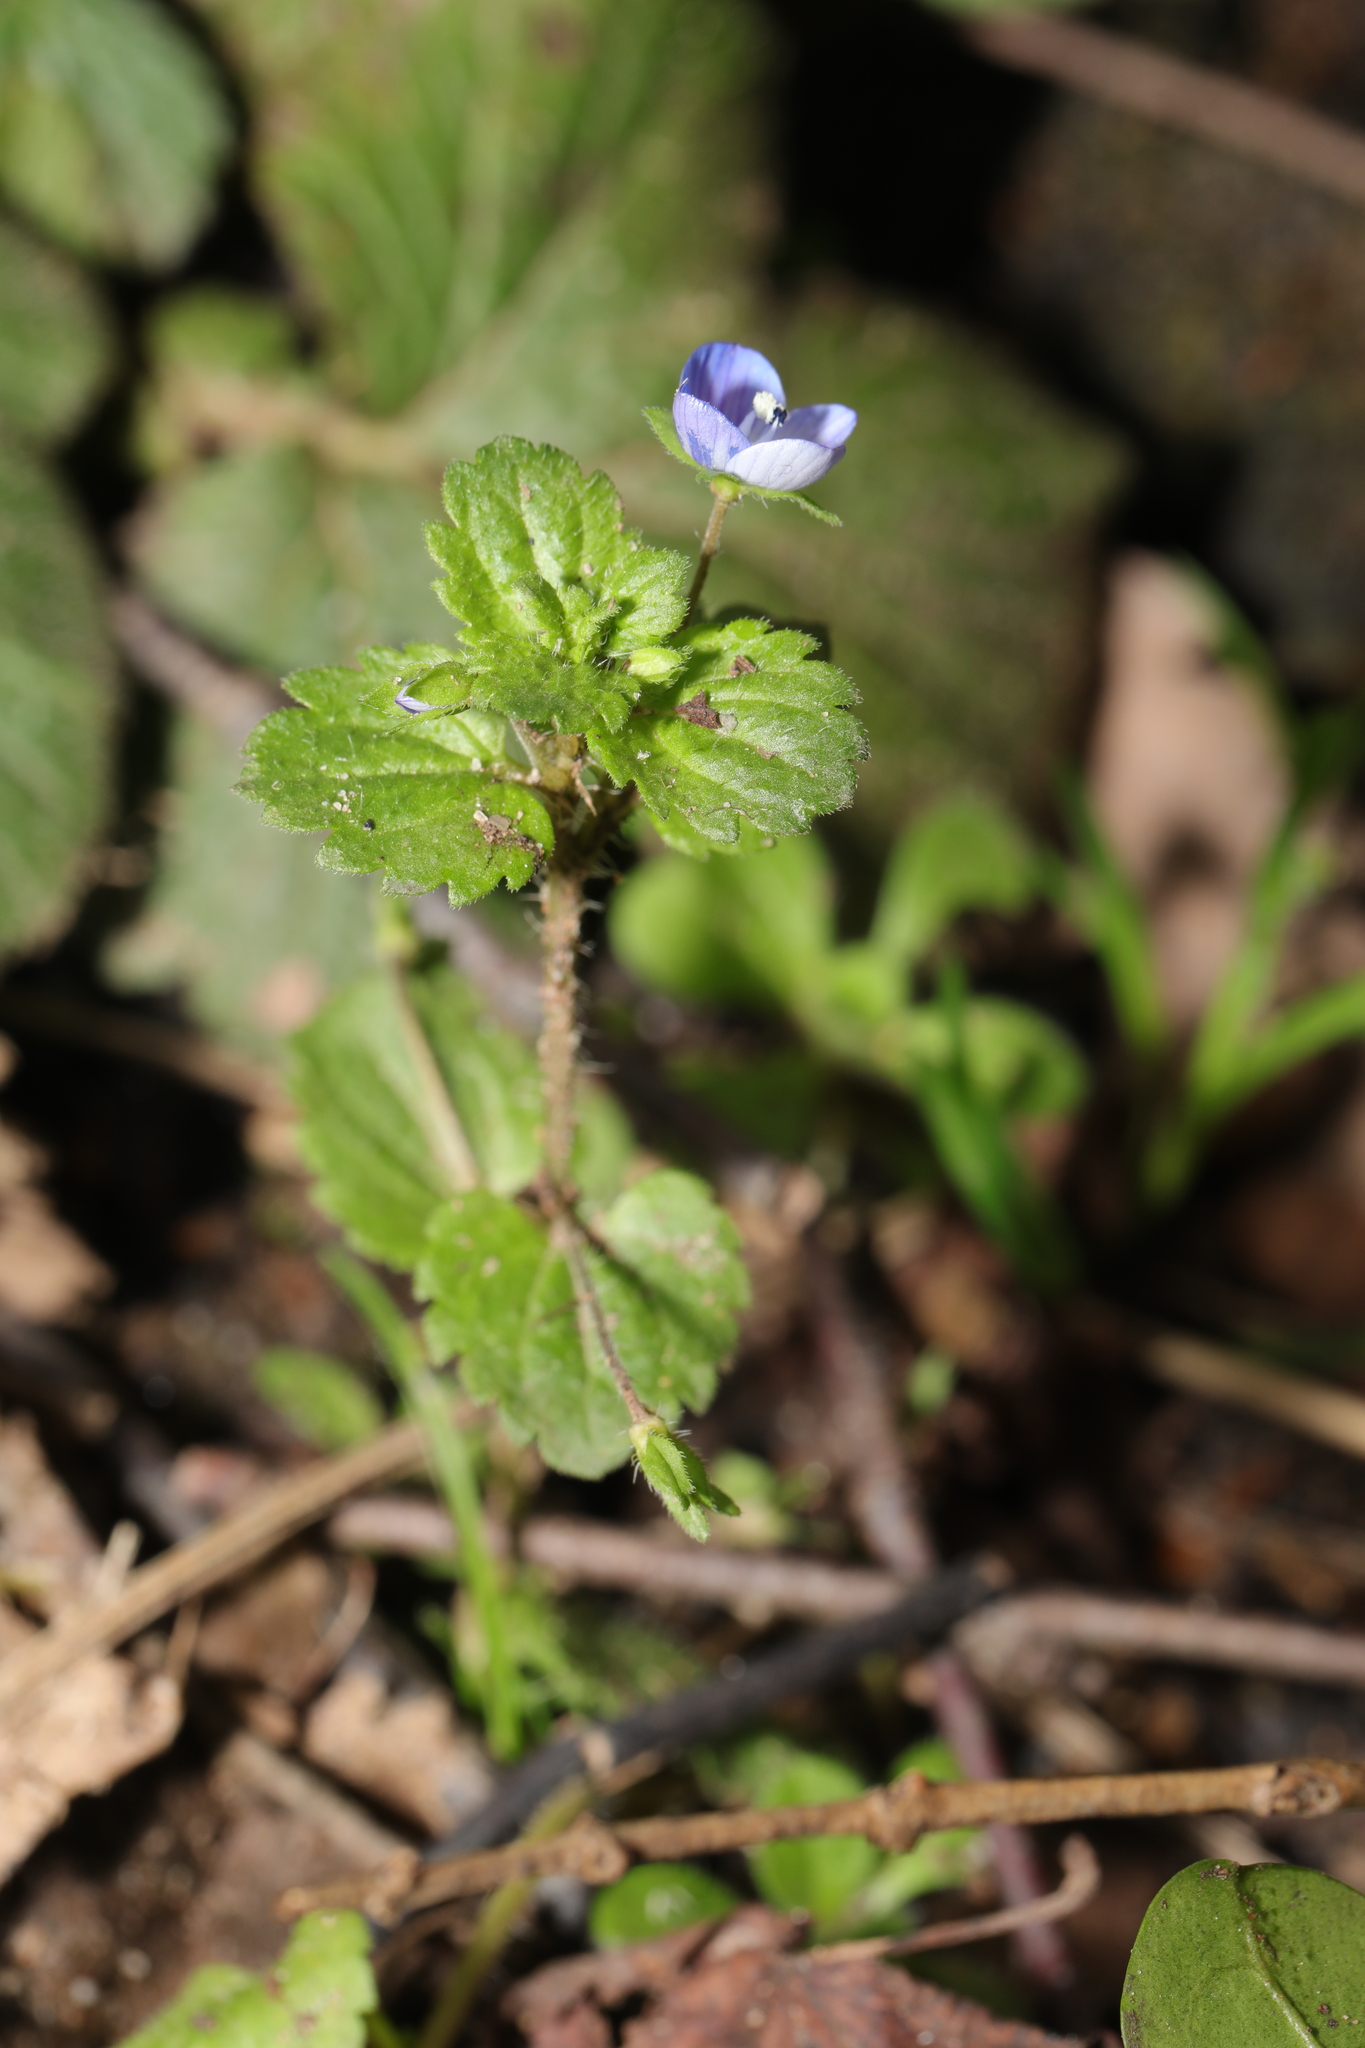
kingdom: Plantae
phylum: Tracheophyta
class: Magnoliopsida
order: Lamiales
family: Plantaginaceae
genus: Veronica
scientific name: Veronica persica
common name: Common field-speedwell
